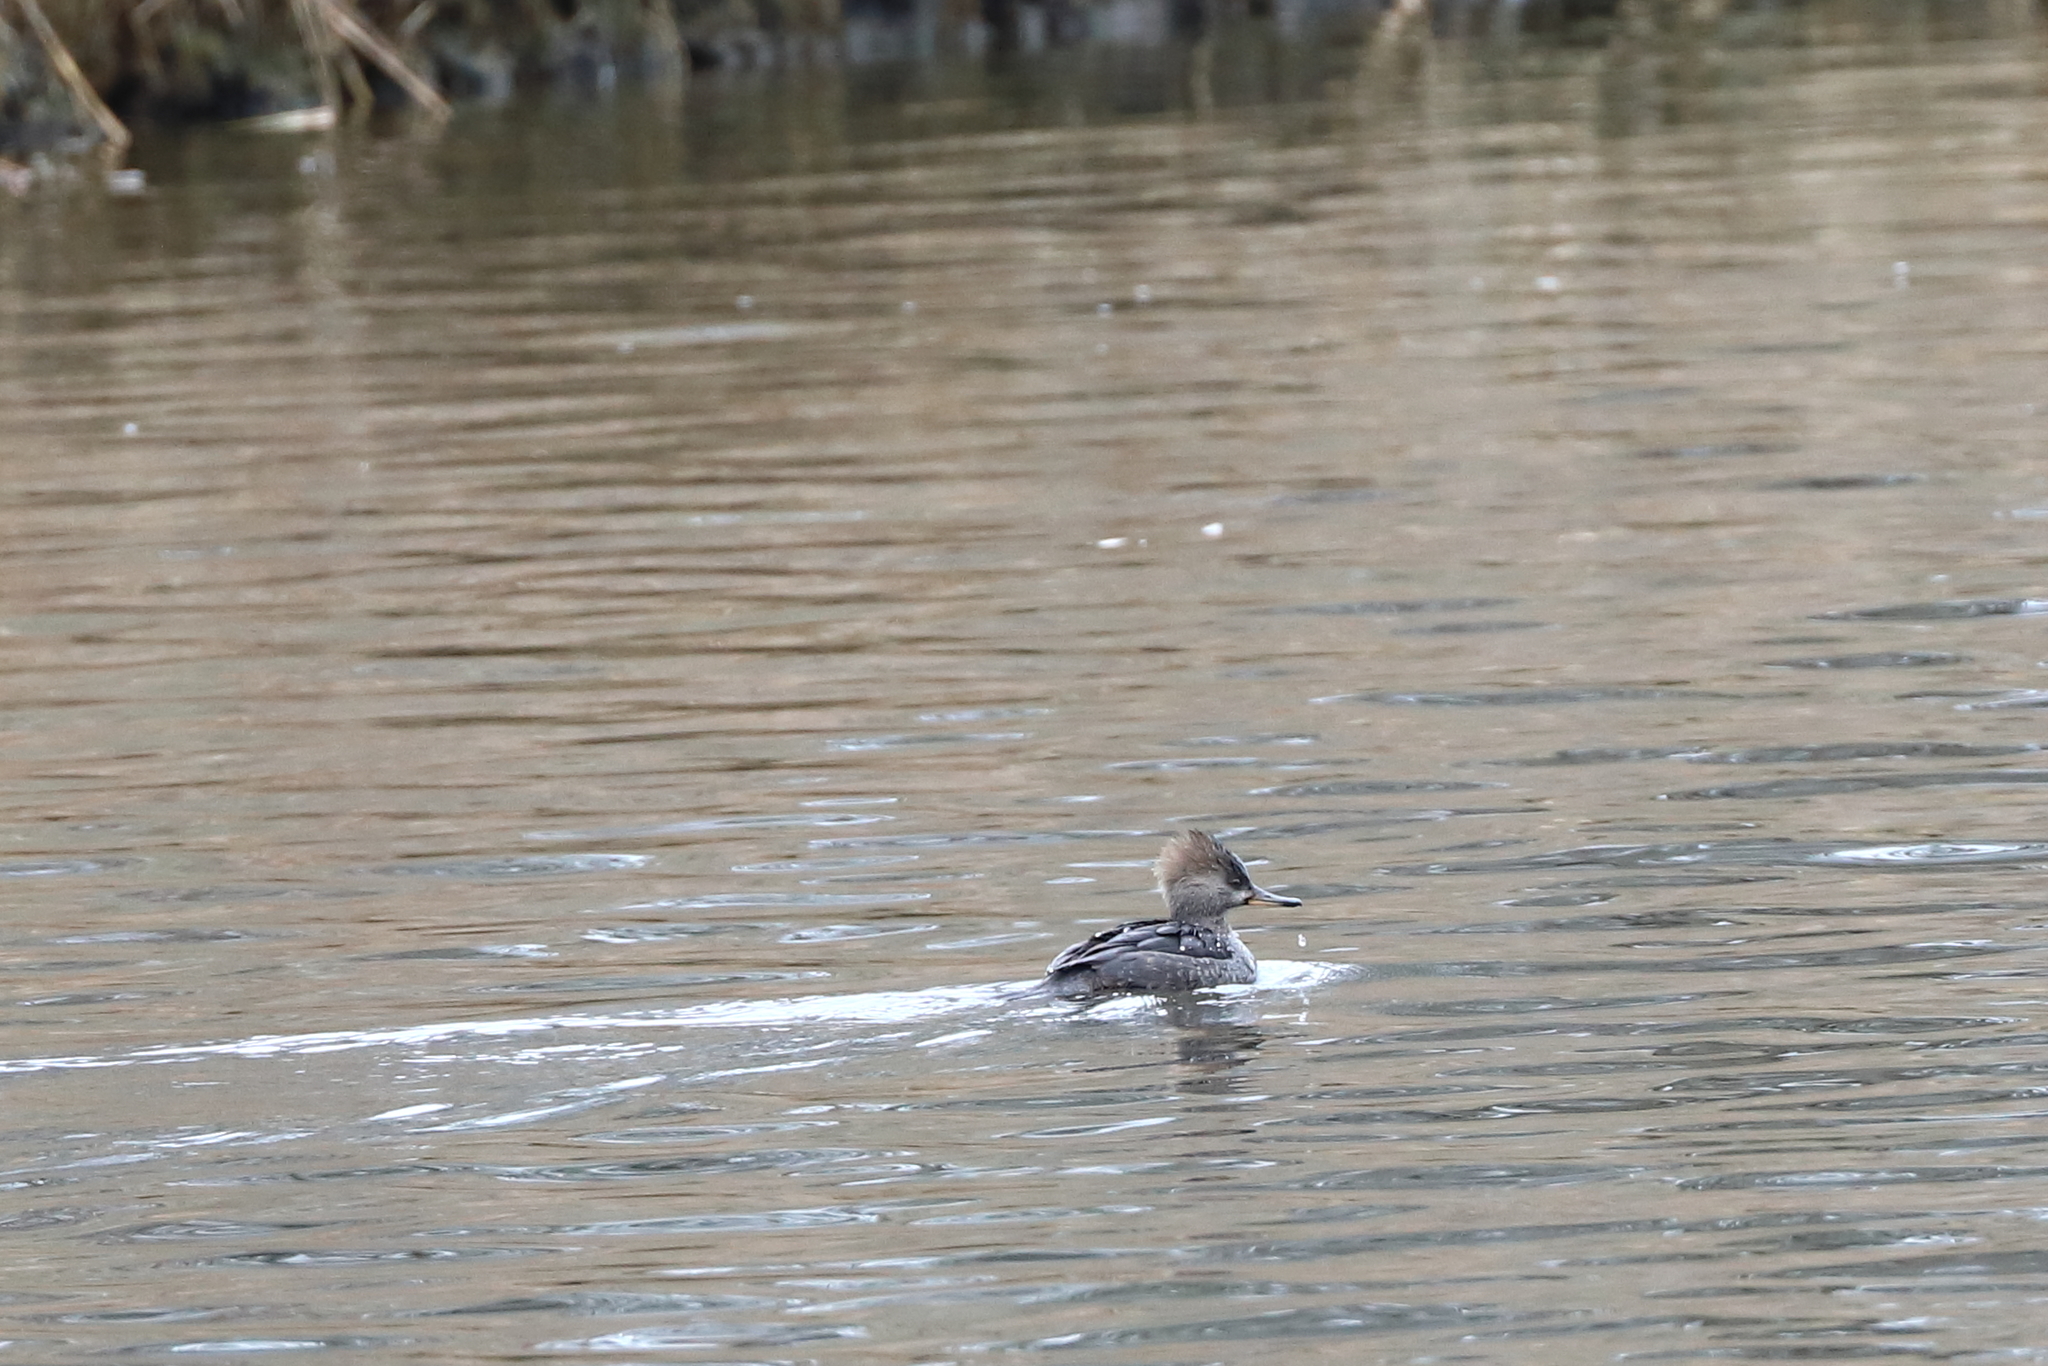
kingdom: Animalia
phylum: Chordata
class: Aves
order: Anseriformes
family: Anatidae
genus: Lophodytes
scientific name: Lophodytes cucullatus
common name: Hooded merganser
